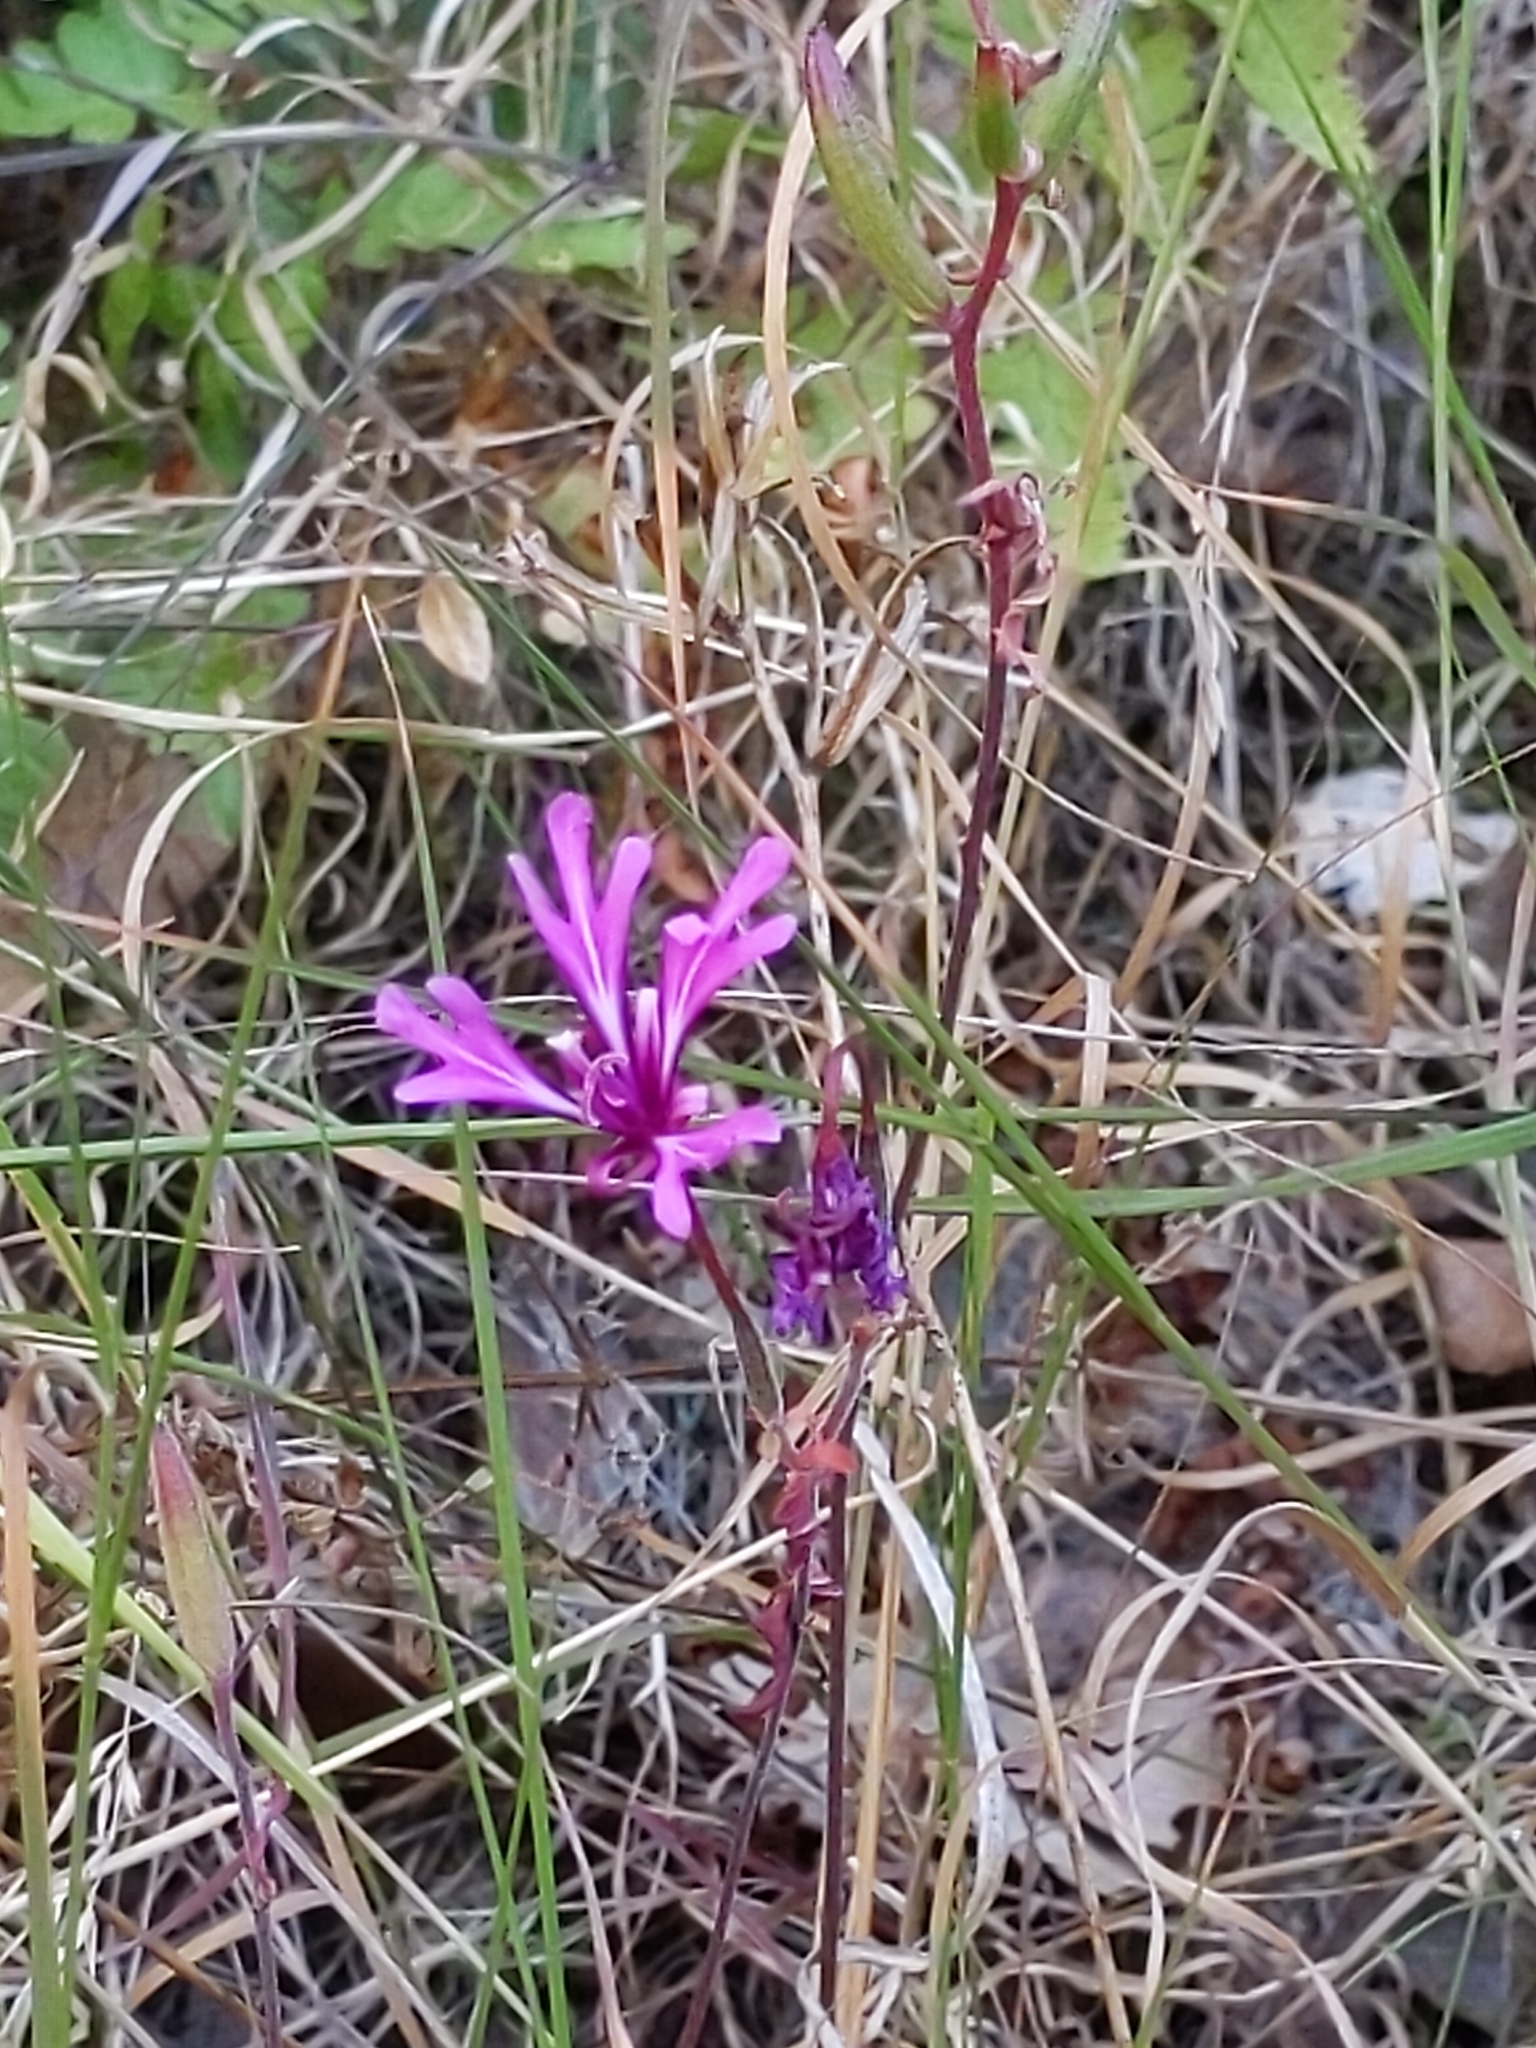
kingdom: Plantae
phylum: Tracheophyta
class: Magnoliopsida
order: Myrtales
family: Onagraceae
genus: Clarkia
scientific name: Clarkia concinna
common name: Red-ribbons
